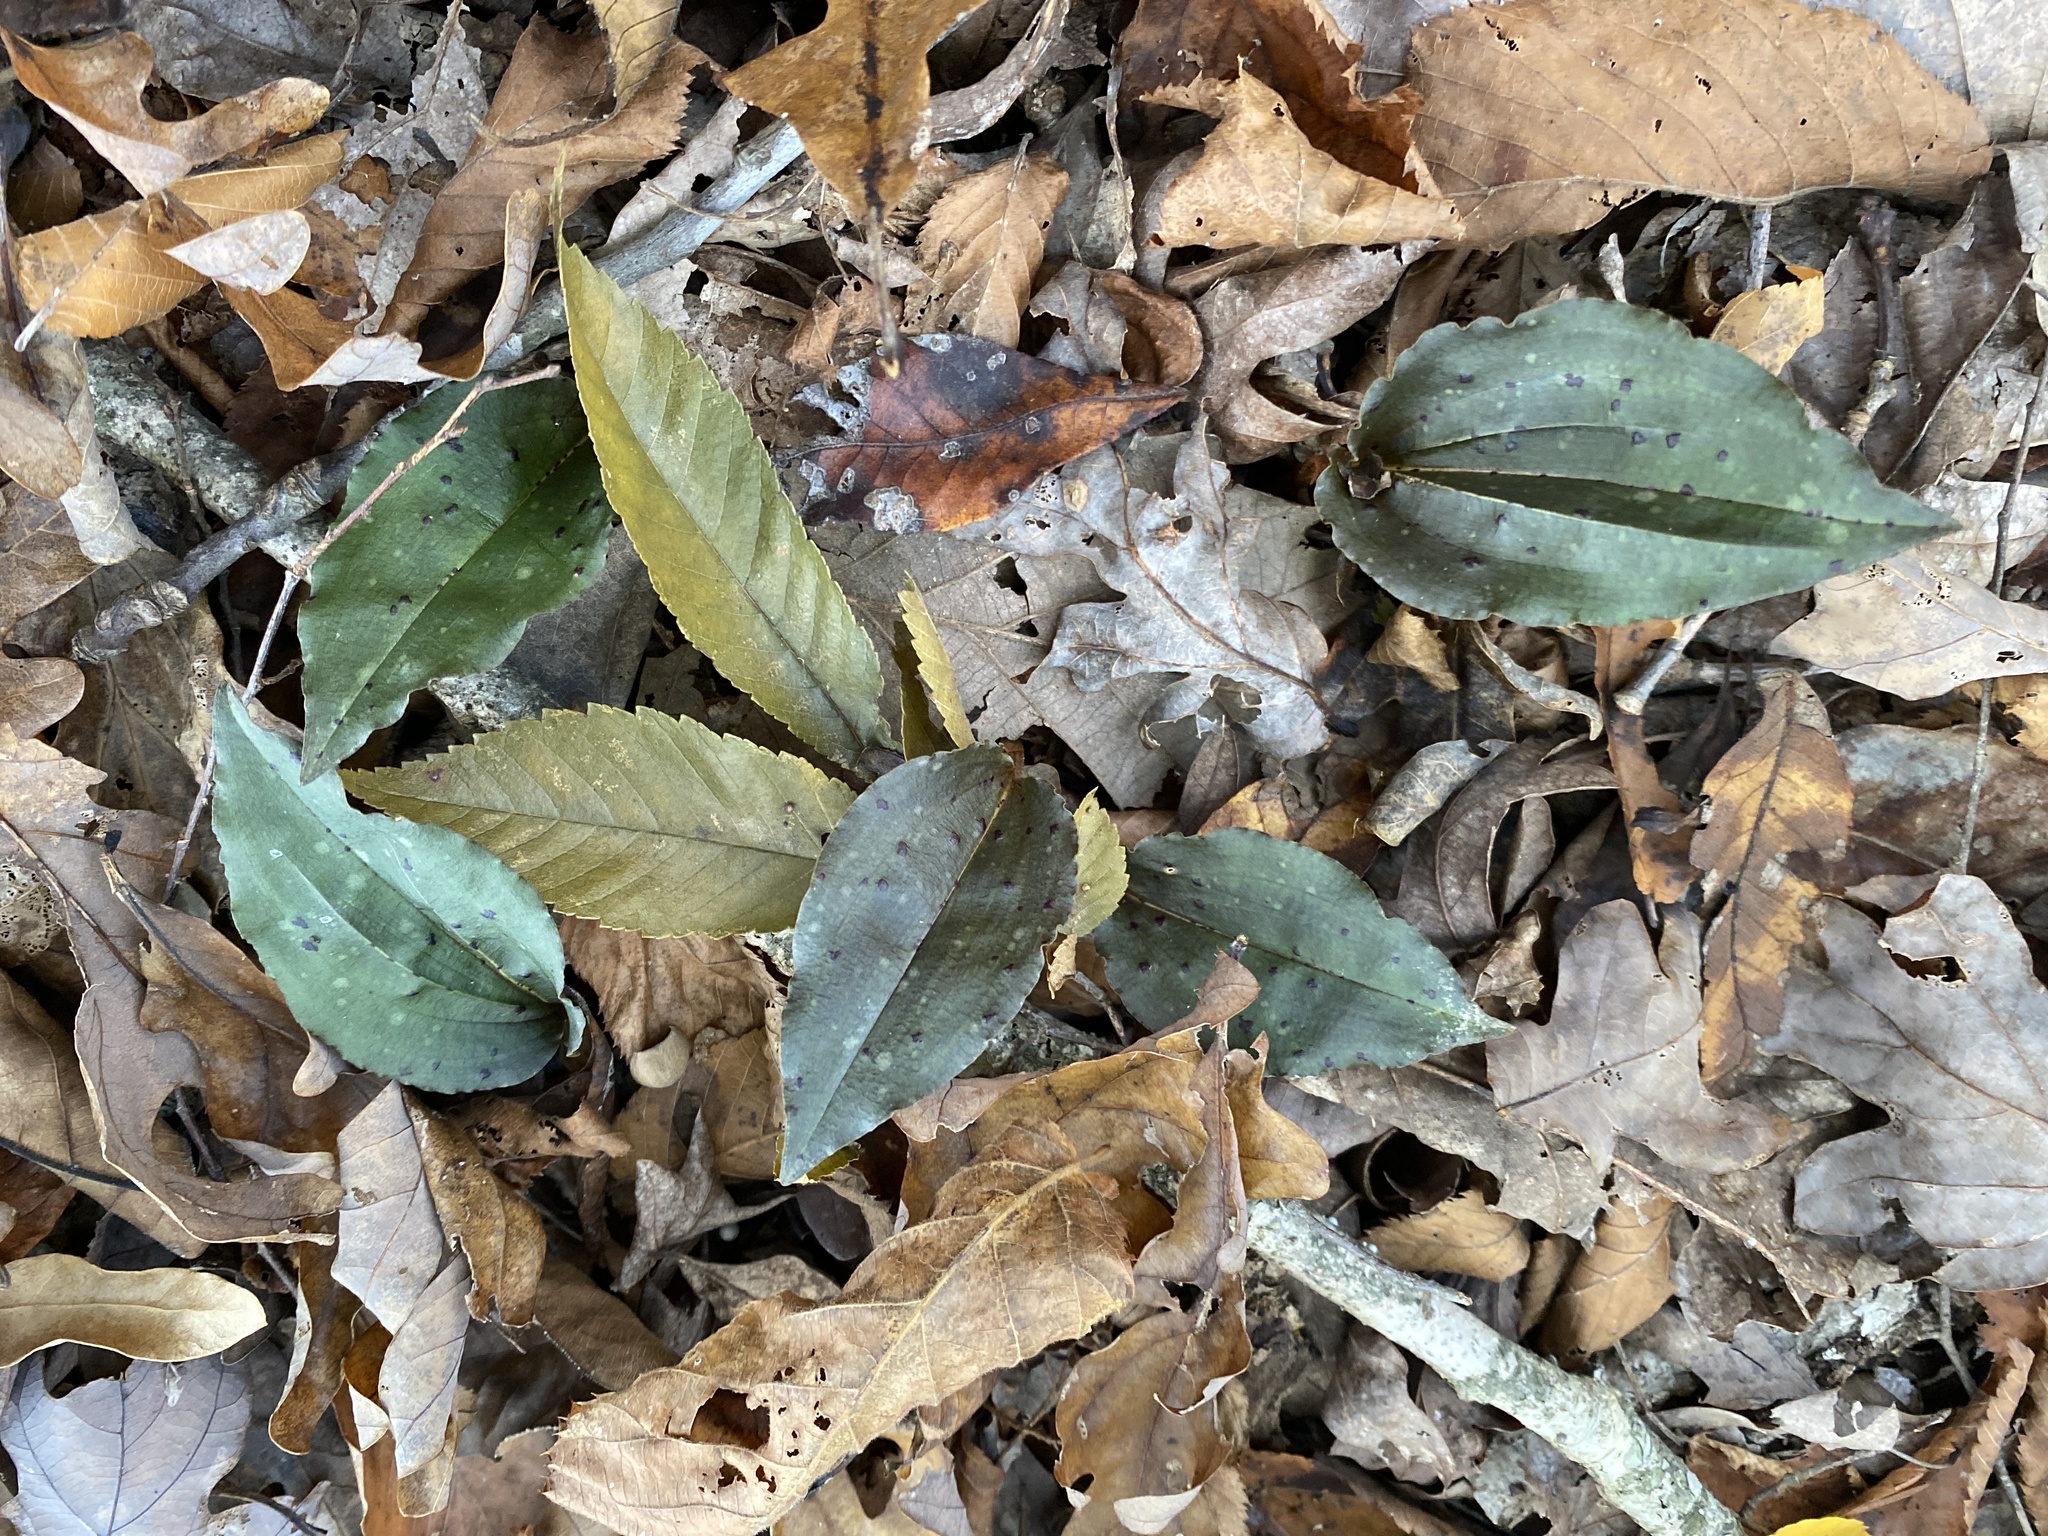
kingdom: Plantae
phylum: Tracheophyta
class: Liliopsida
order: Asparagales
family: Orchidaceae
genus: Tipularia
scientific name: Tipularia discolor
